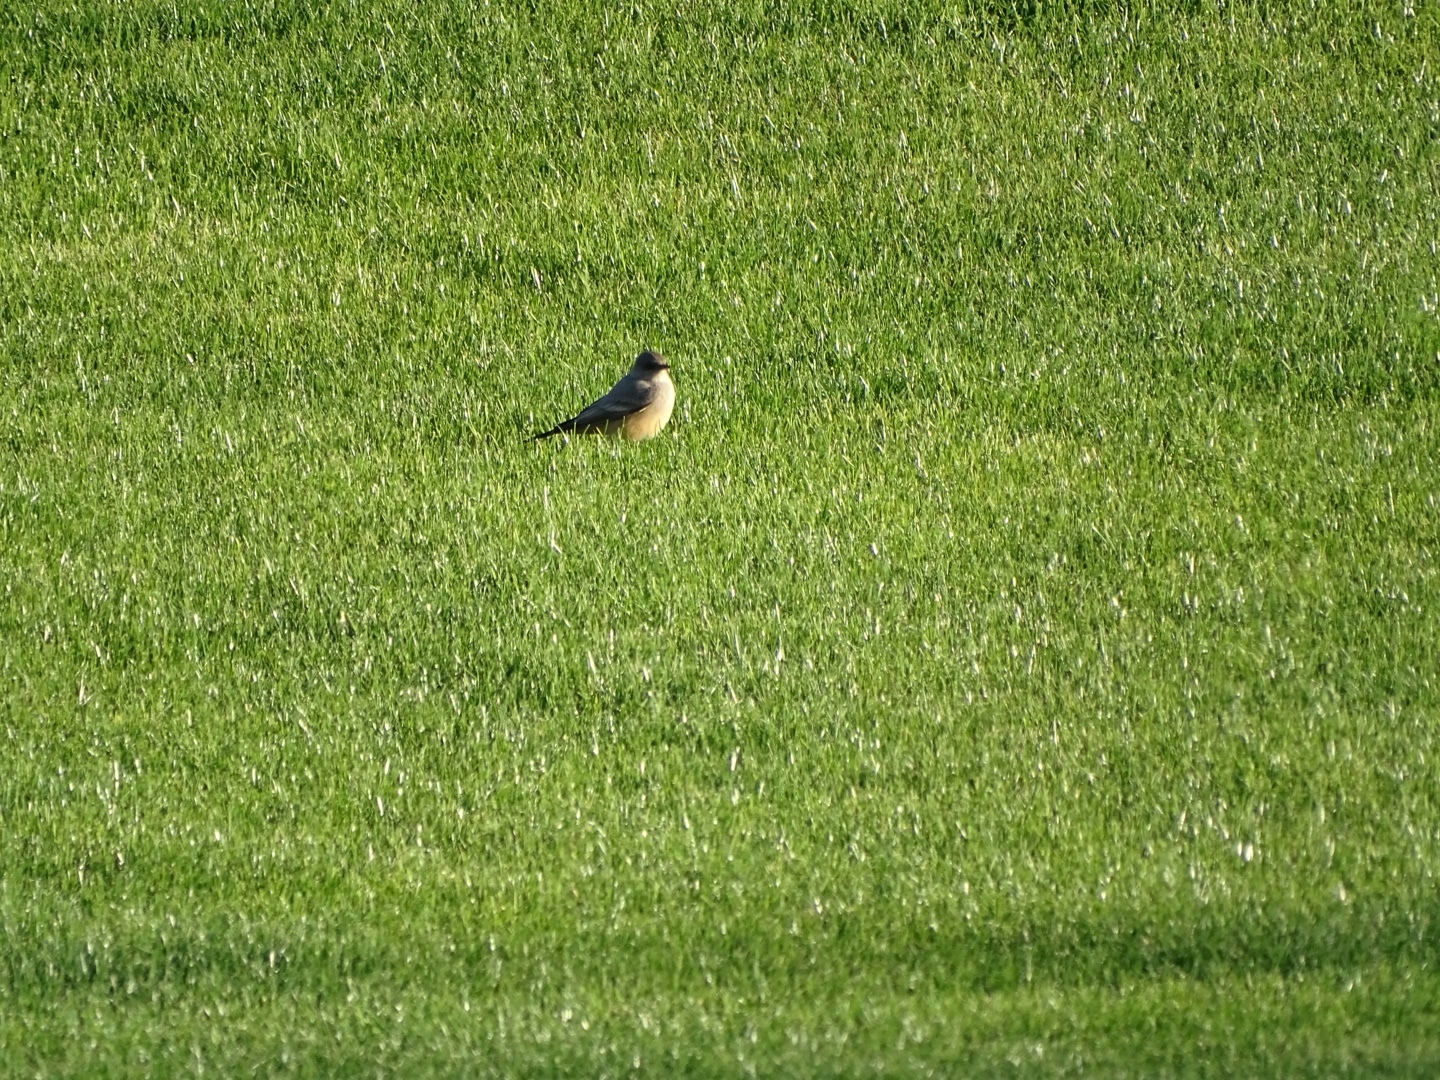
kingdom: Animalia
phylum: Chordata
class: Aves
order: Passeriformes
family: Tyrannidae
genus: Sayornis
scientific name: Sayornis saya
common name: Say's phoebe
